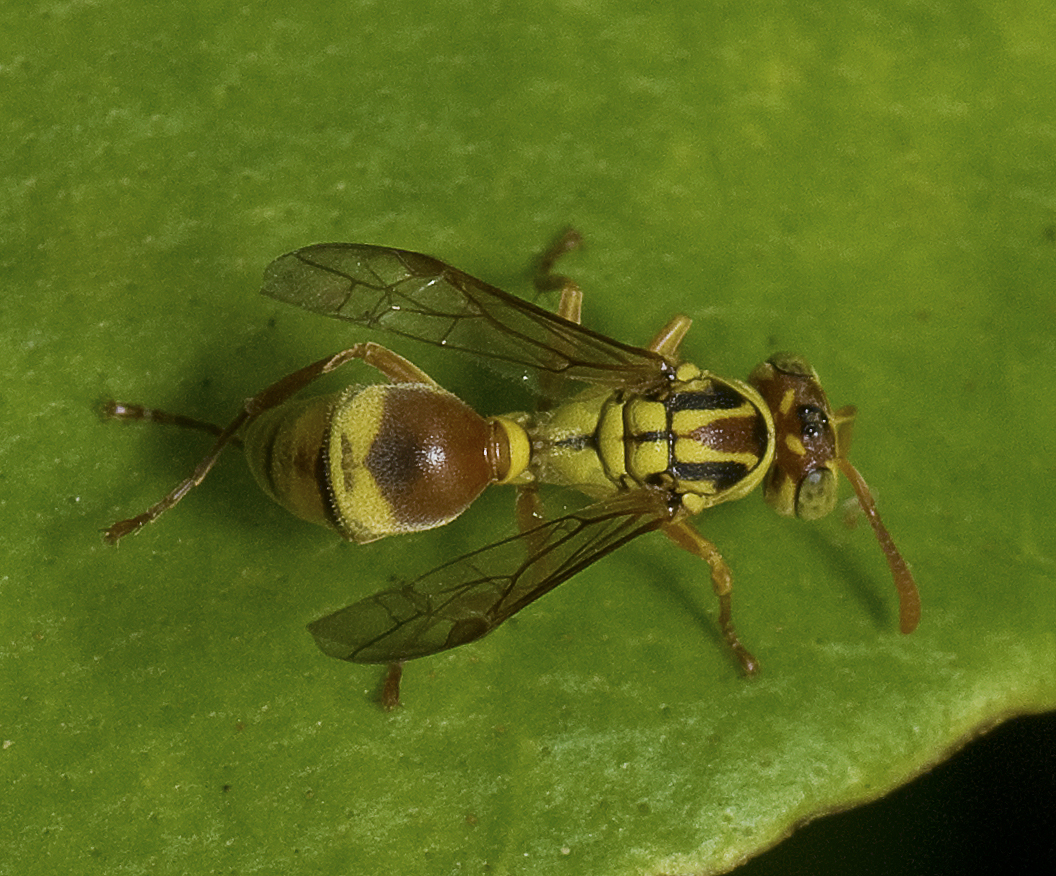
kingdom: Animalia
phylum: Arthropoda
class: Insecta
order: Hymenoptera
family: Vespidae
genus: Ropalidia
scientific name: Ropalidia romandi
